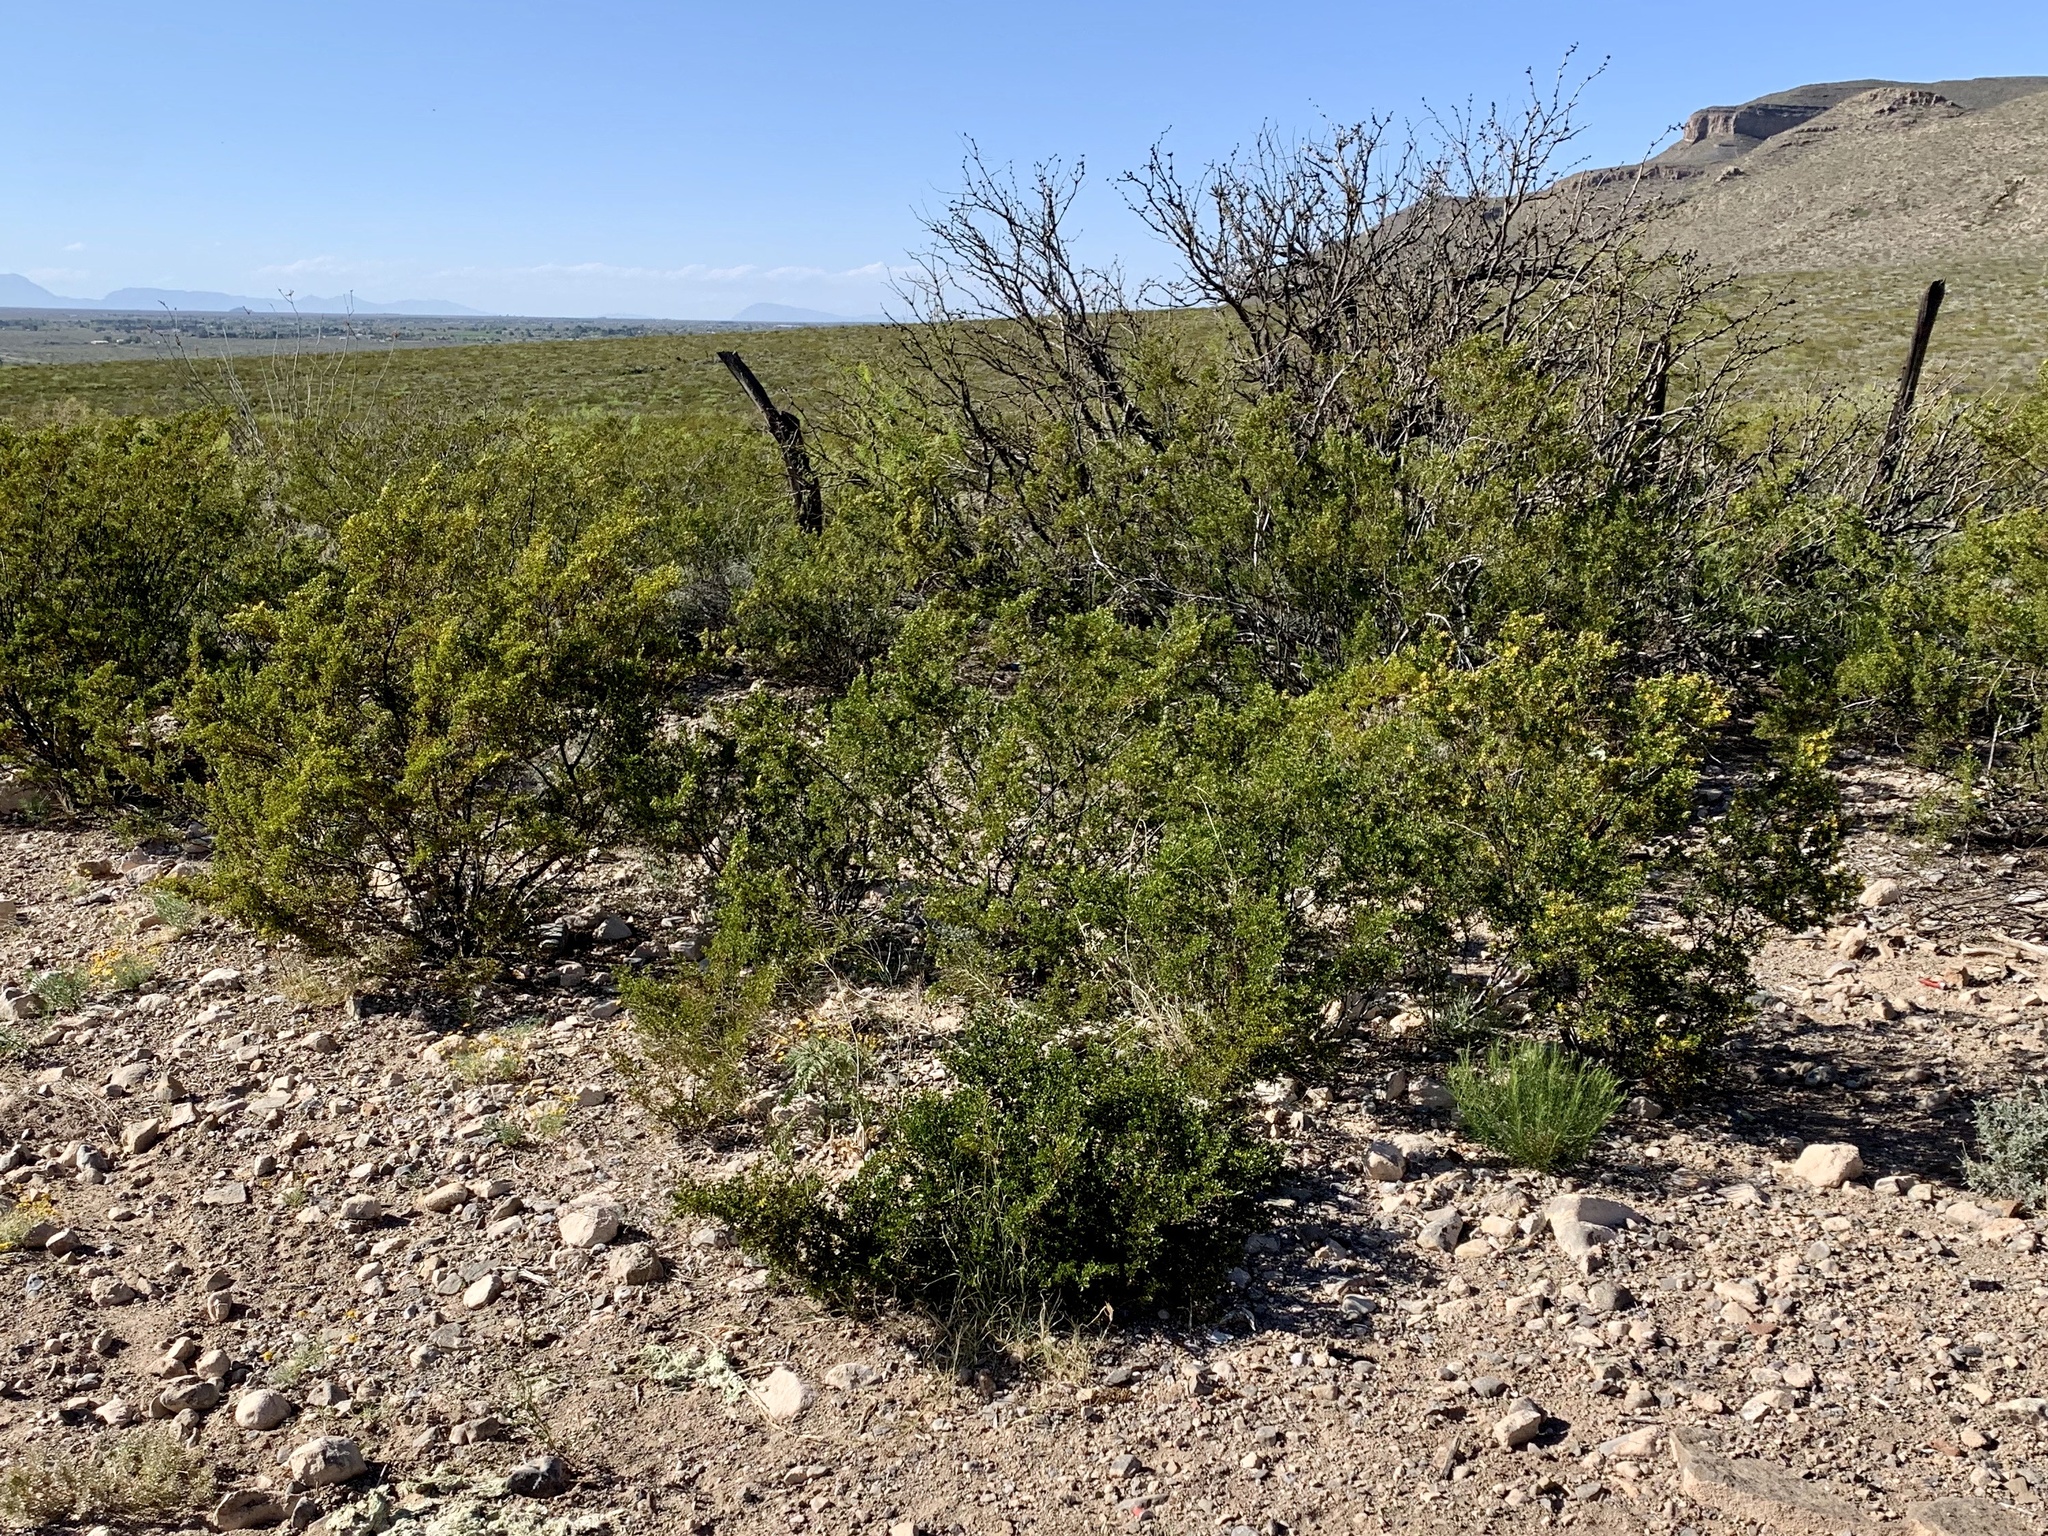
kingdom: Plantae
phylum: Tracheophyta
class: Magnoliopsida
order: Zygophyllales
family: Zygophyllaceae
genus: Larrea
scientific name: Larrea tridentata
